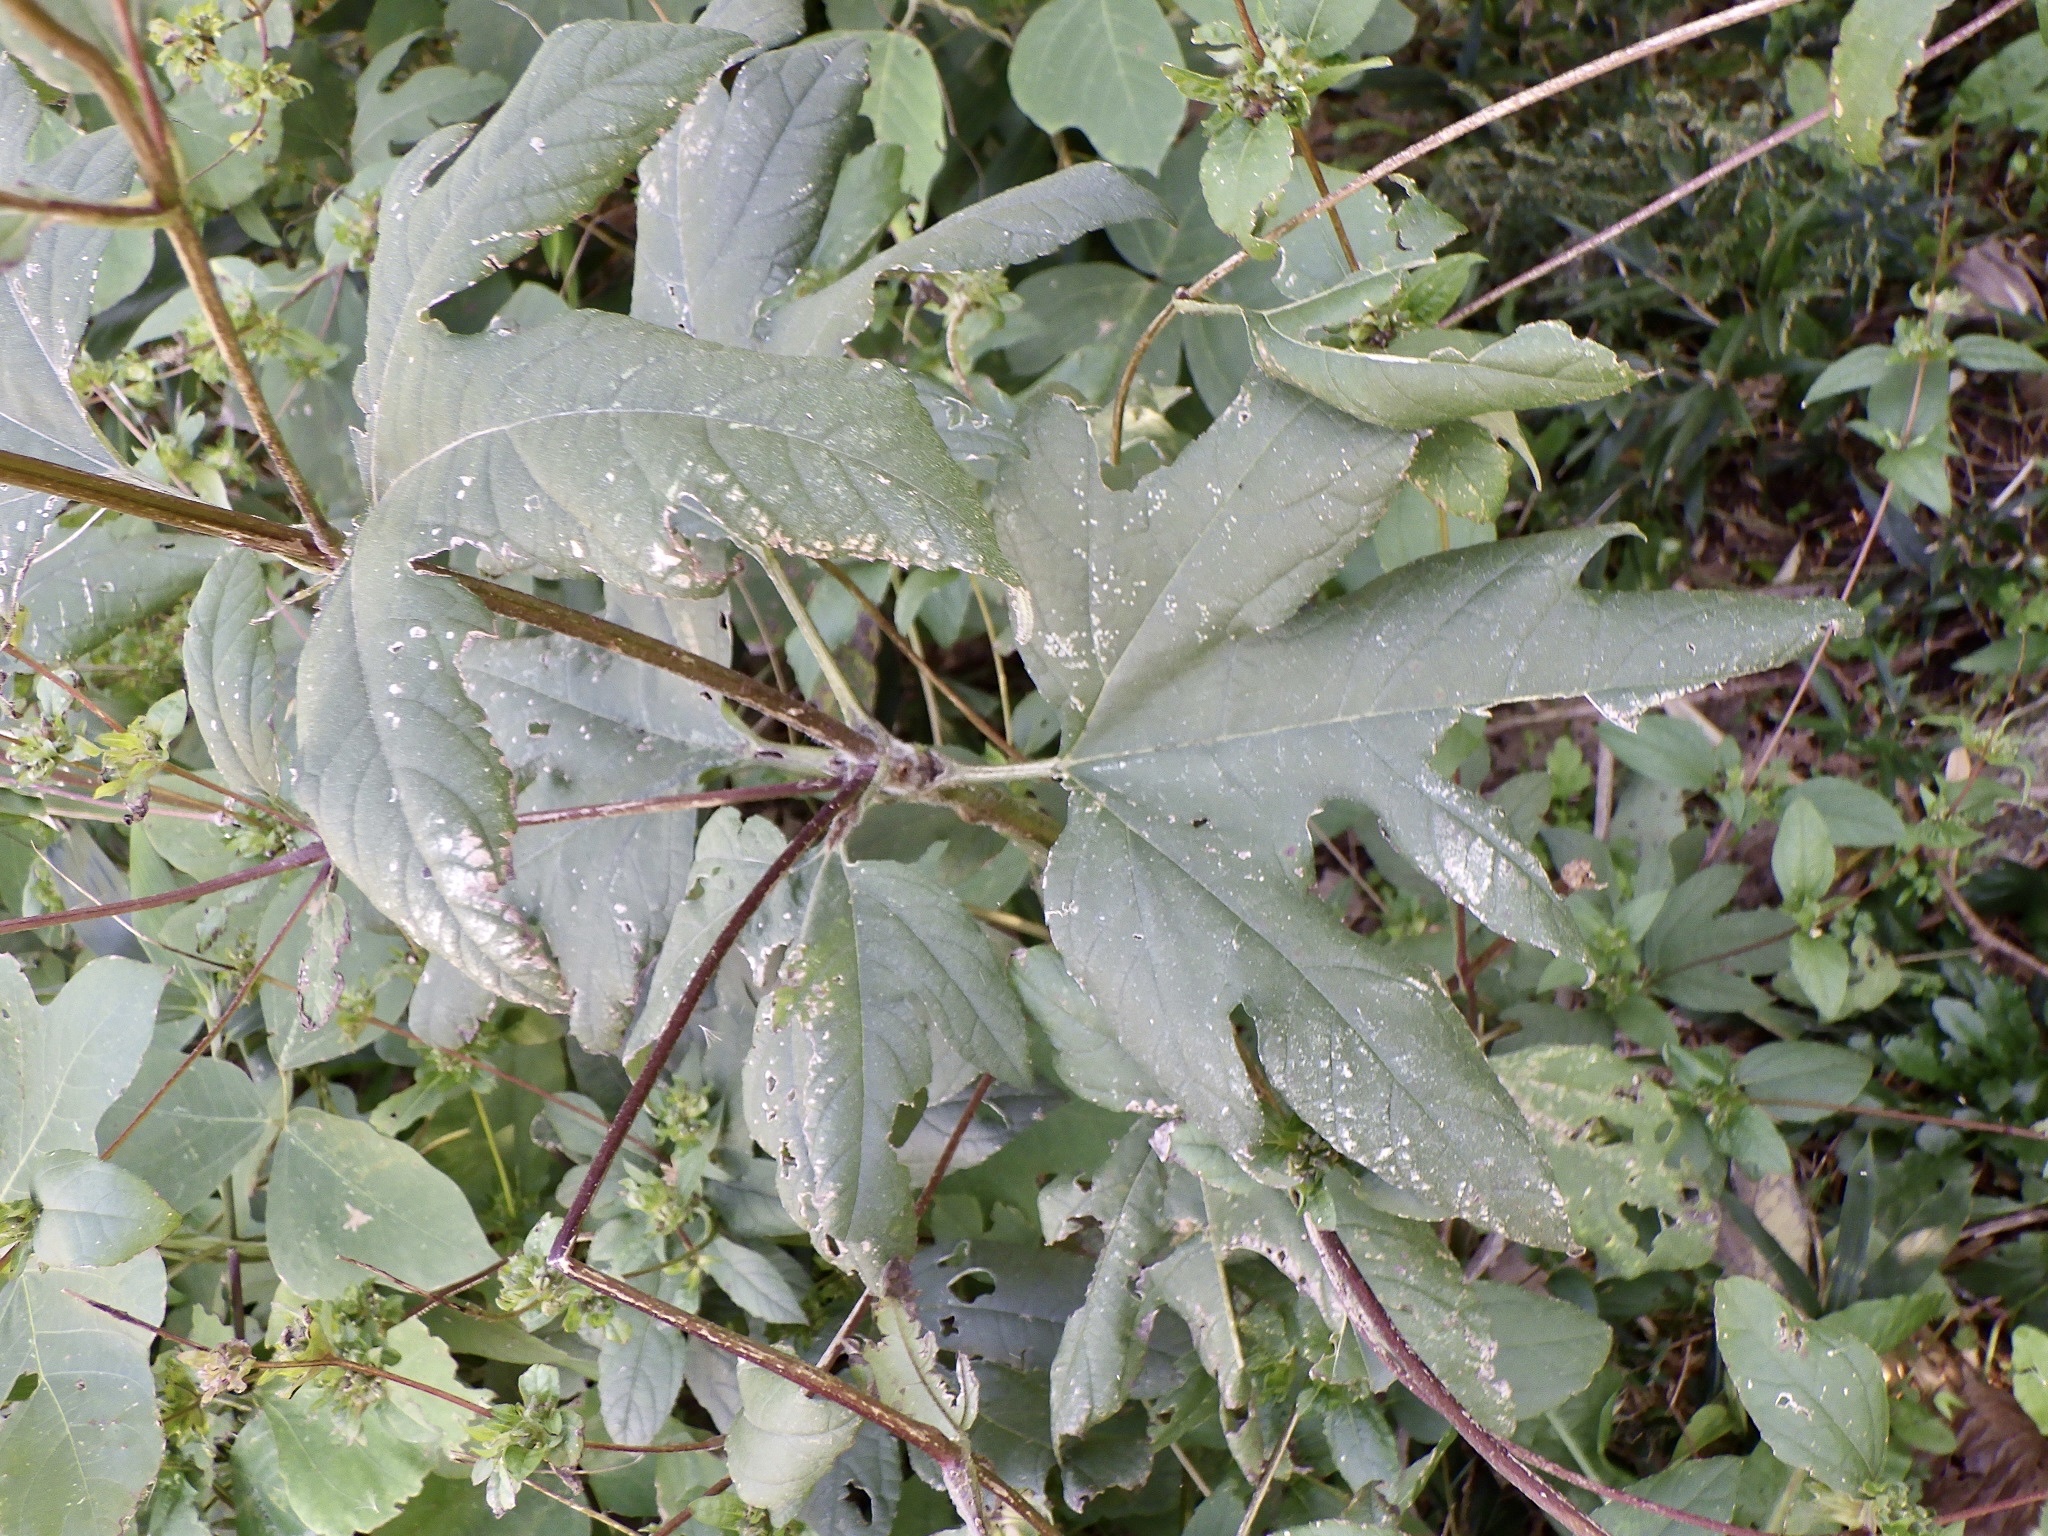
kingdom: Plantae
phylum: Tracheophyta
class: Magnoliopsida
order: Asterales
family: Asteraceae
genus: Ambrosia
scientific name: Ambrosia trifida
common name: Giant ragweed
